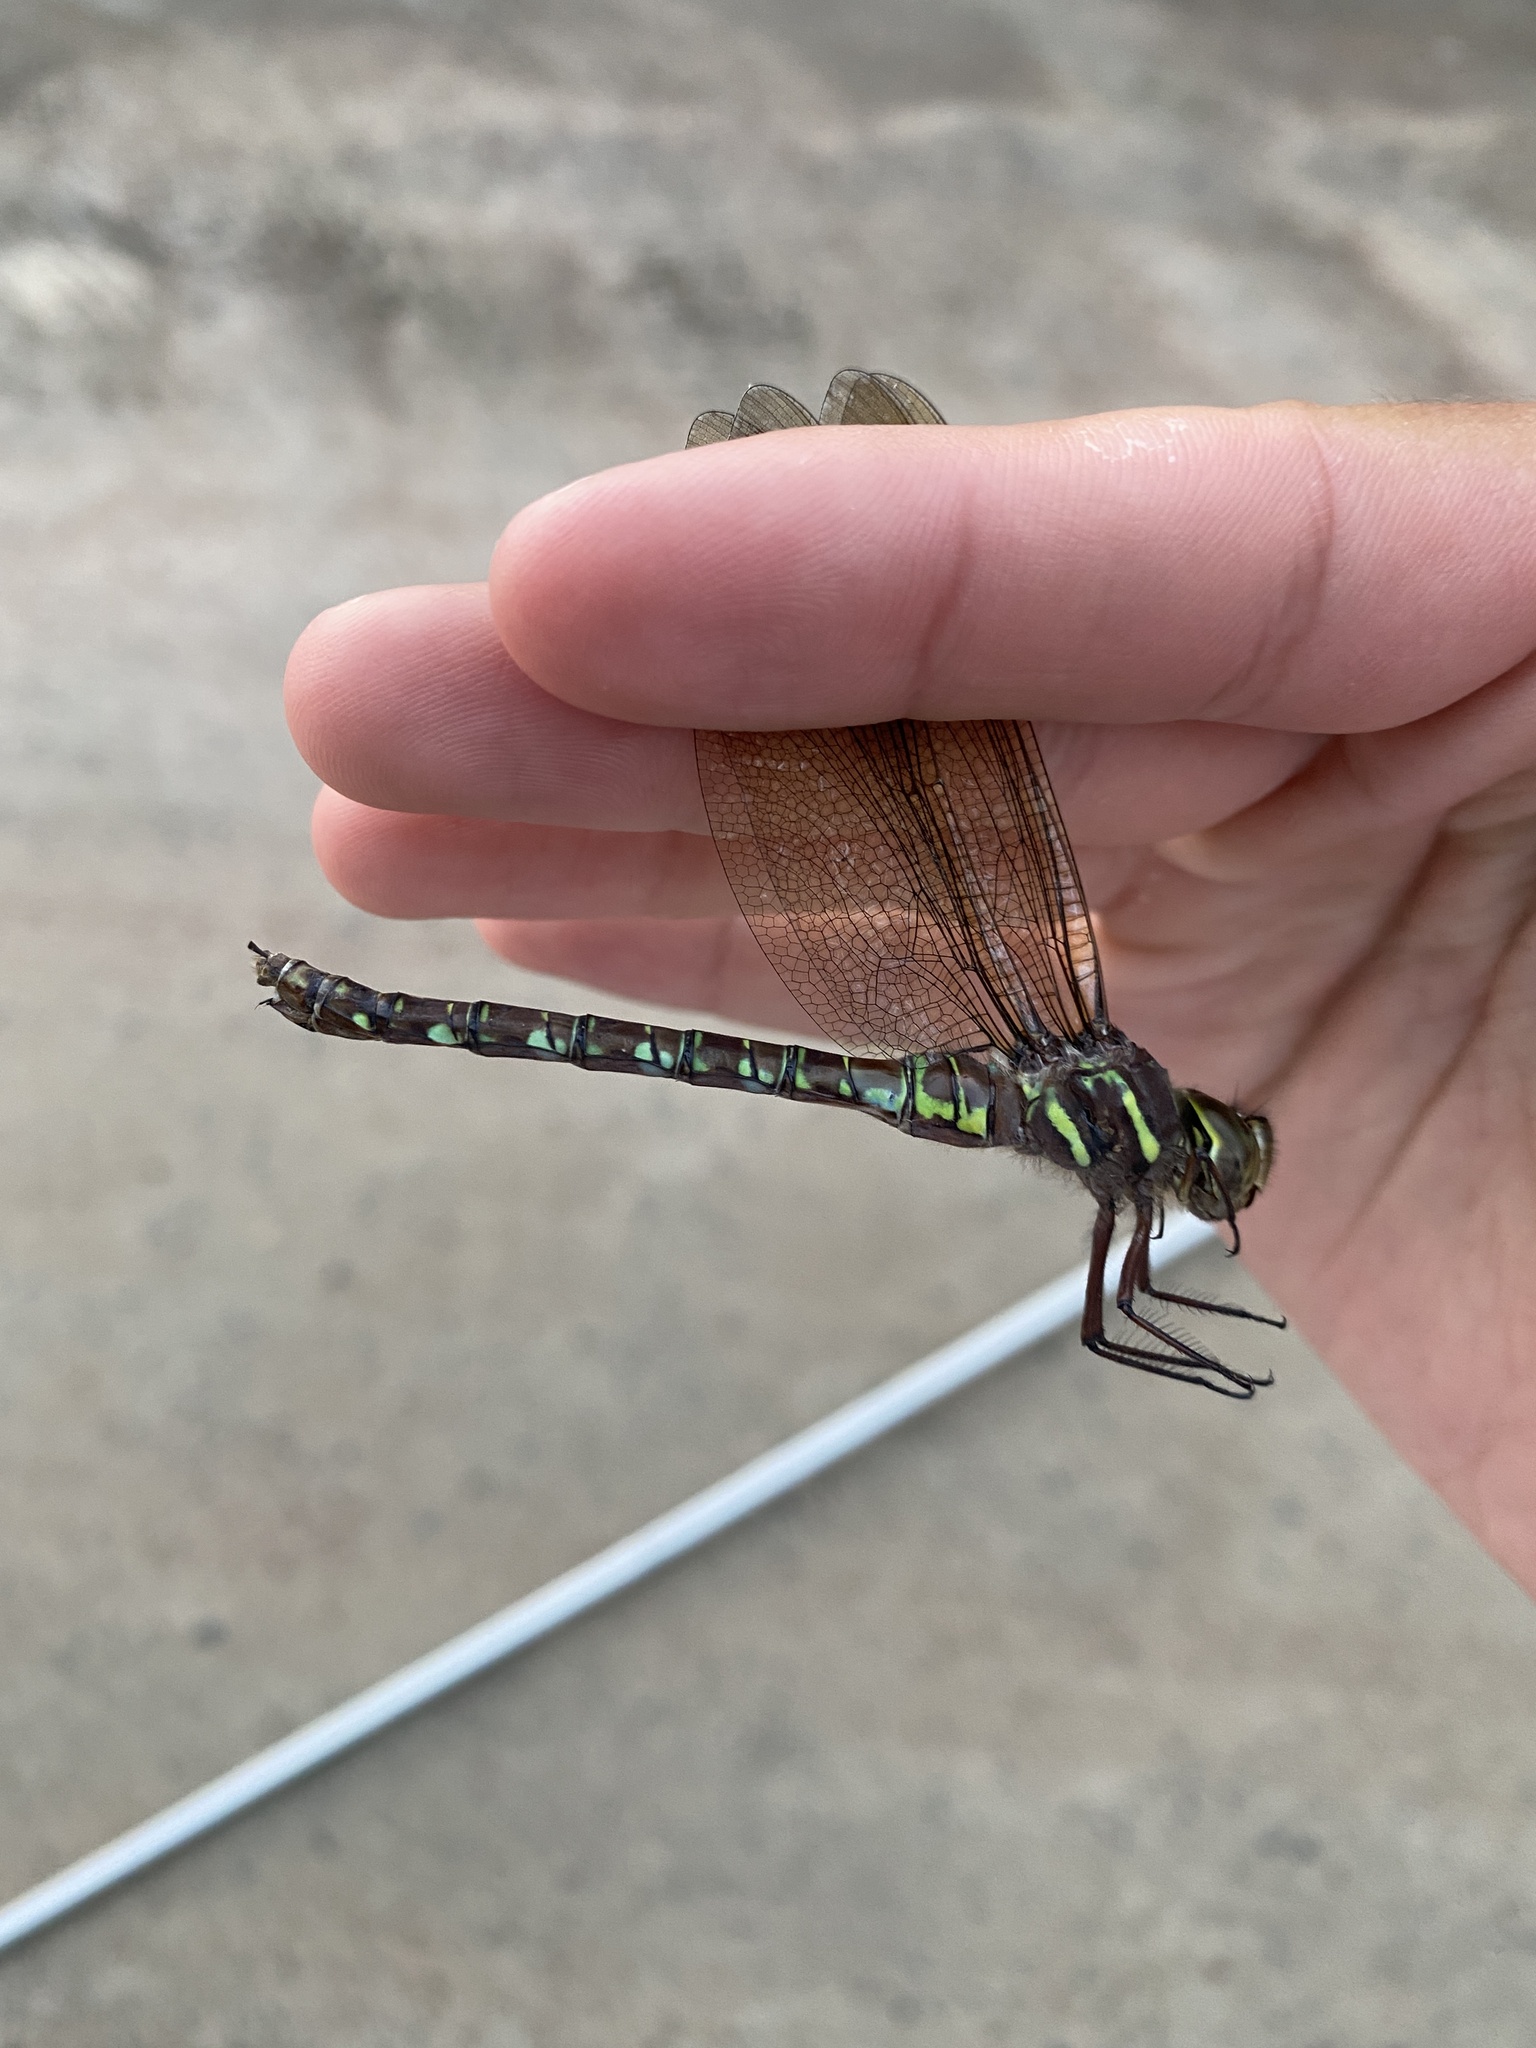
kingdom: Animalia
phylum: Arthropoda
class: Insecta
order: Odonata
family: Aeshnidae
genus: Aeshna
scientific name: Aeshna umbrosa
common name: Shadow darner
